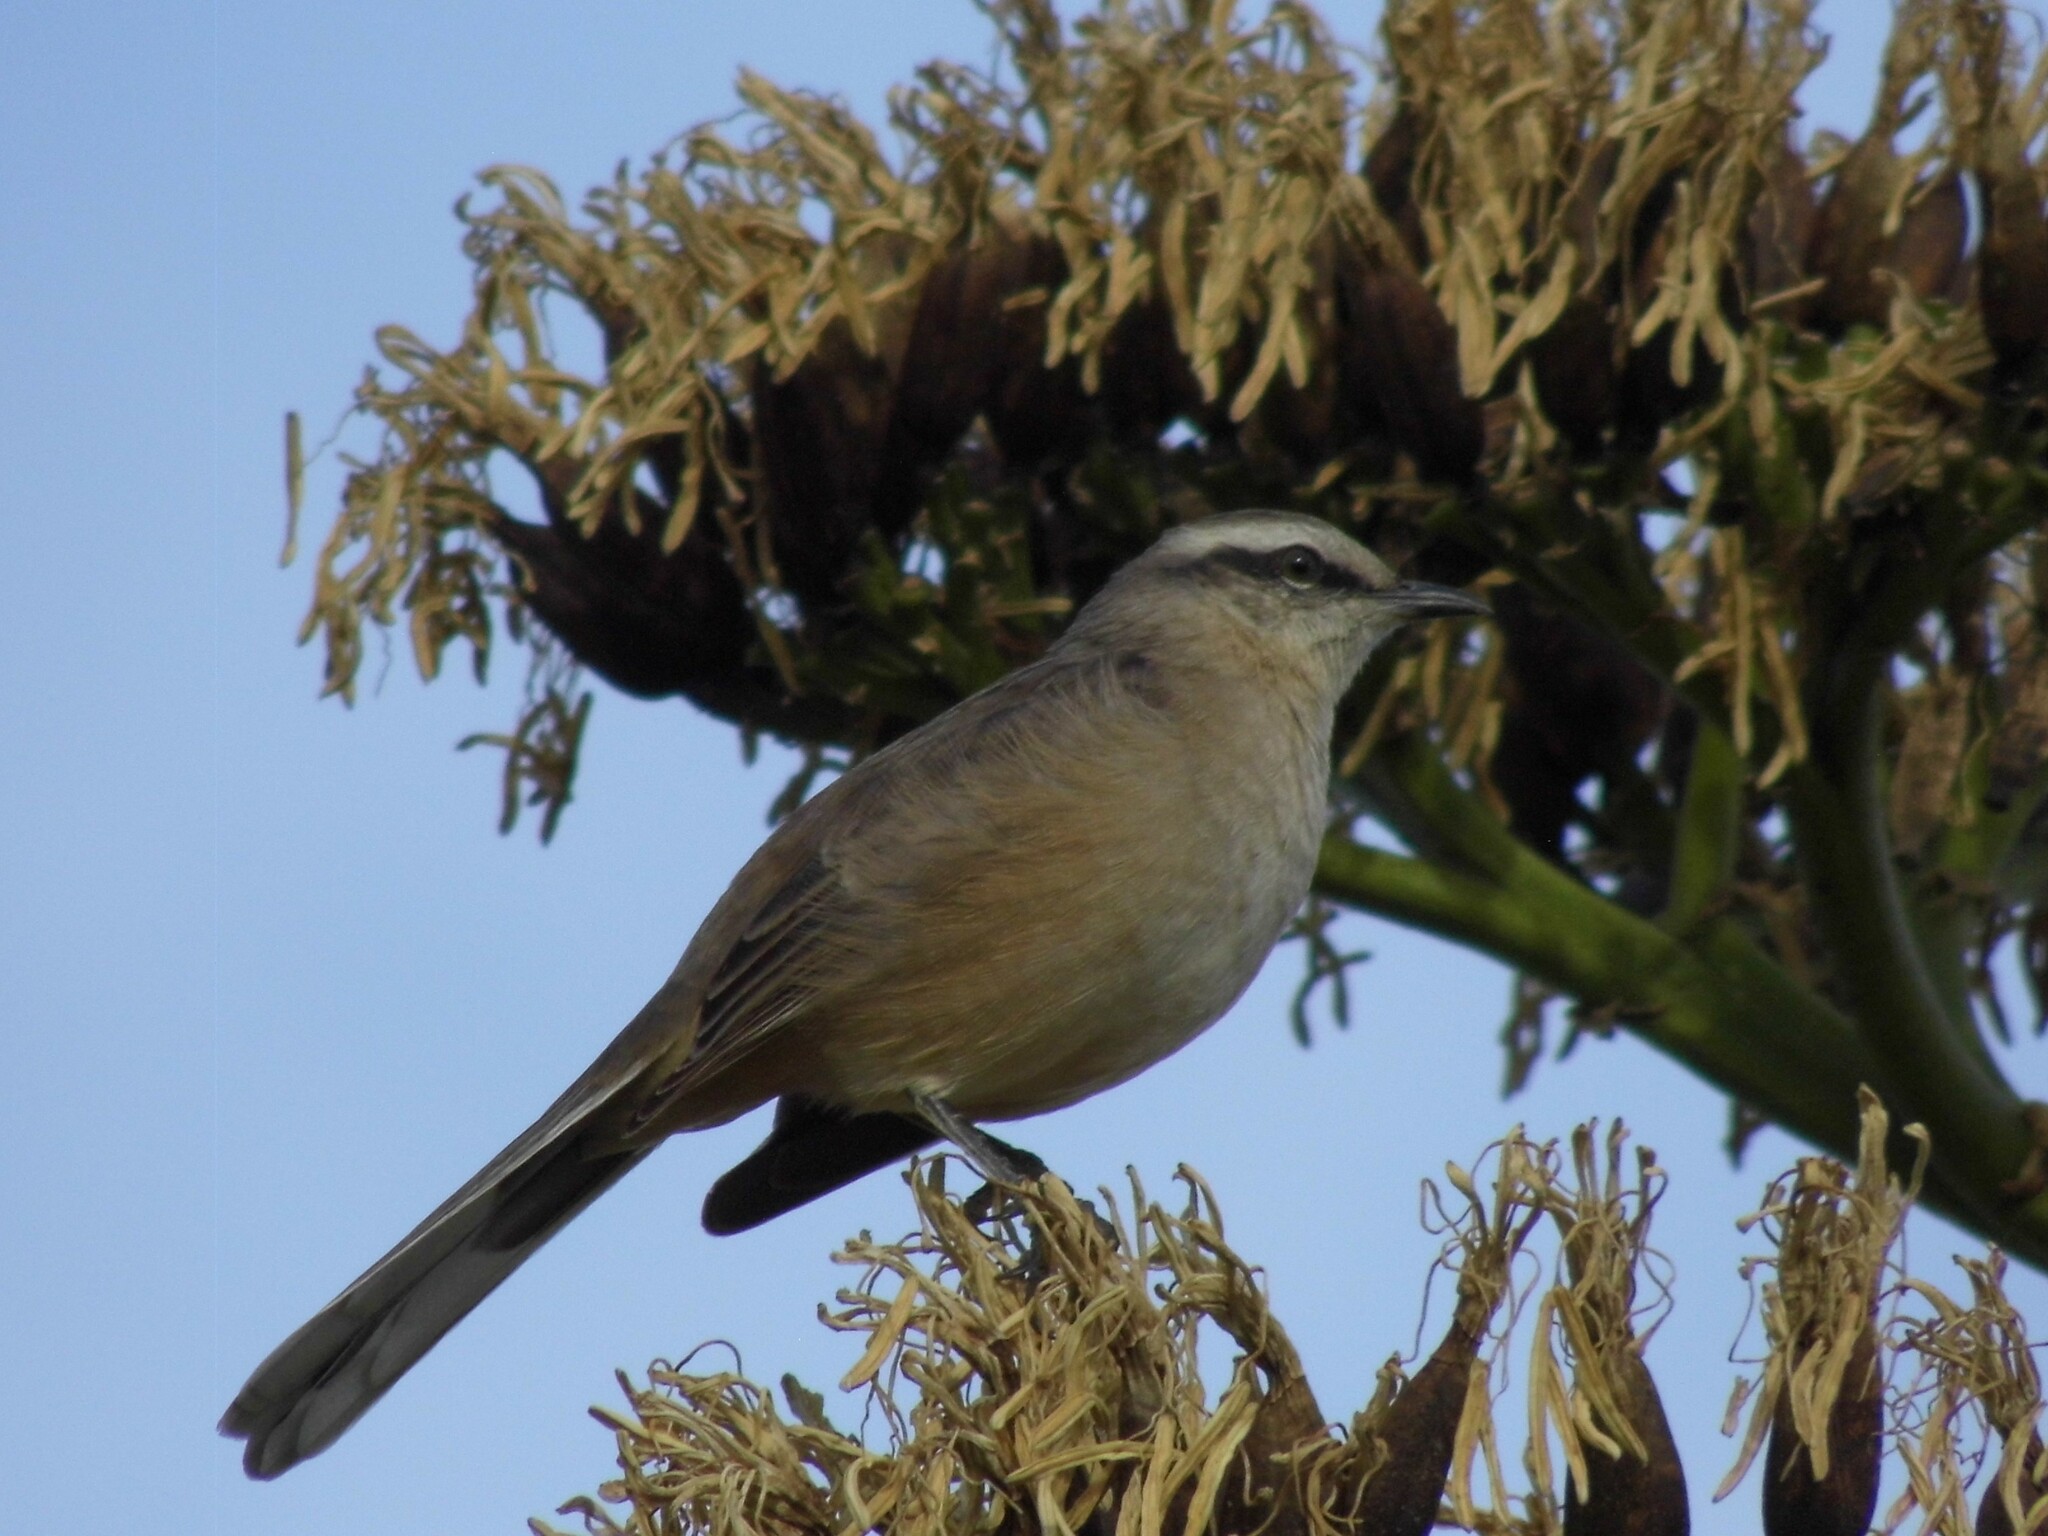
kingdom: Animalia
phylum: Chordata
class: Aves
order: Passeriformes
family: Mimidae
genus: Mimus
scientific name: Mimus saturninus
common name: Chalk-browed mockingbird
